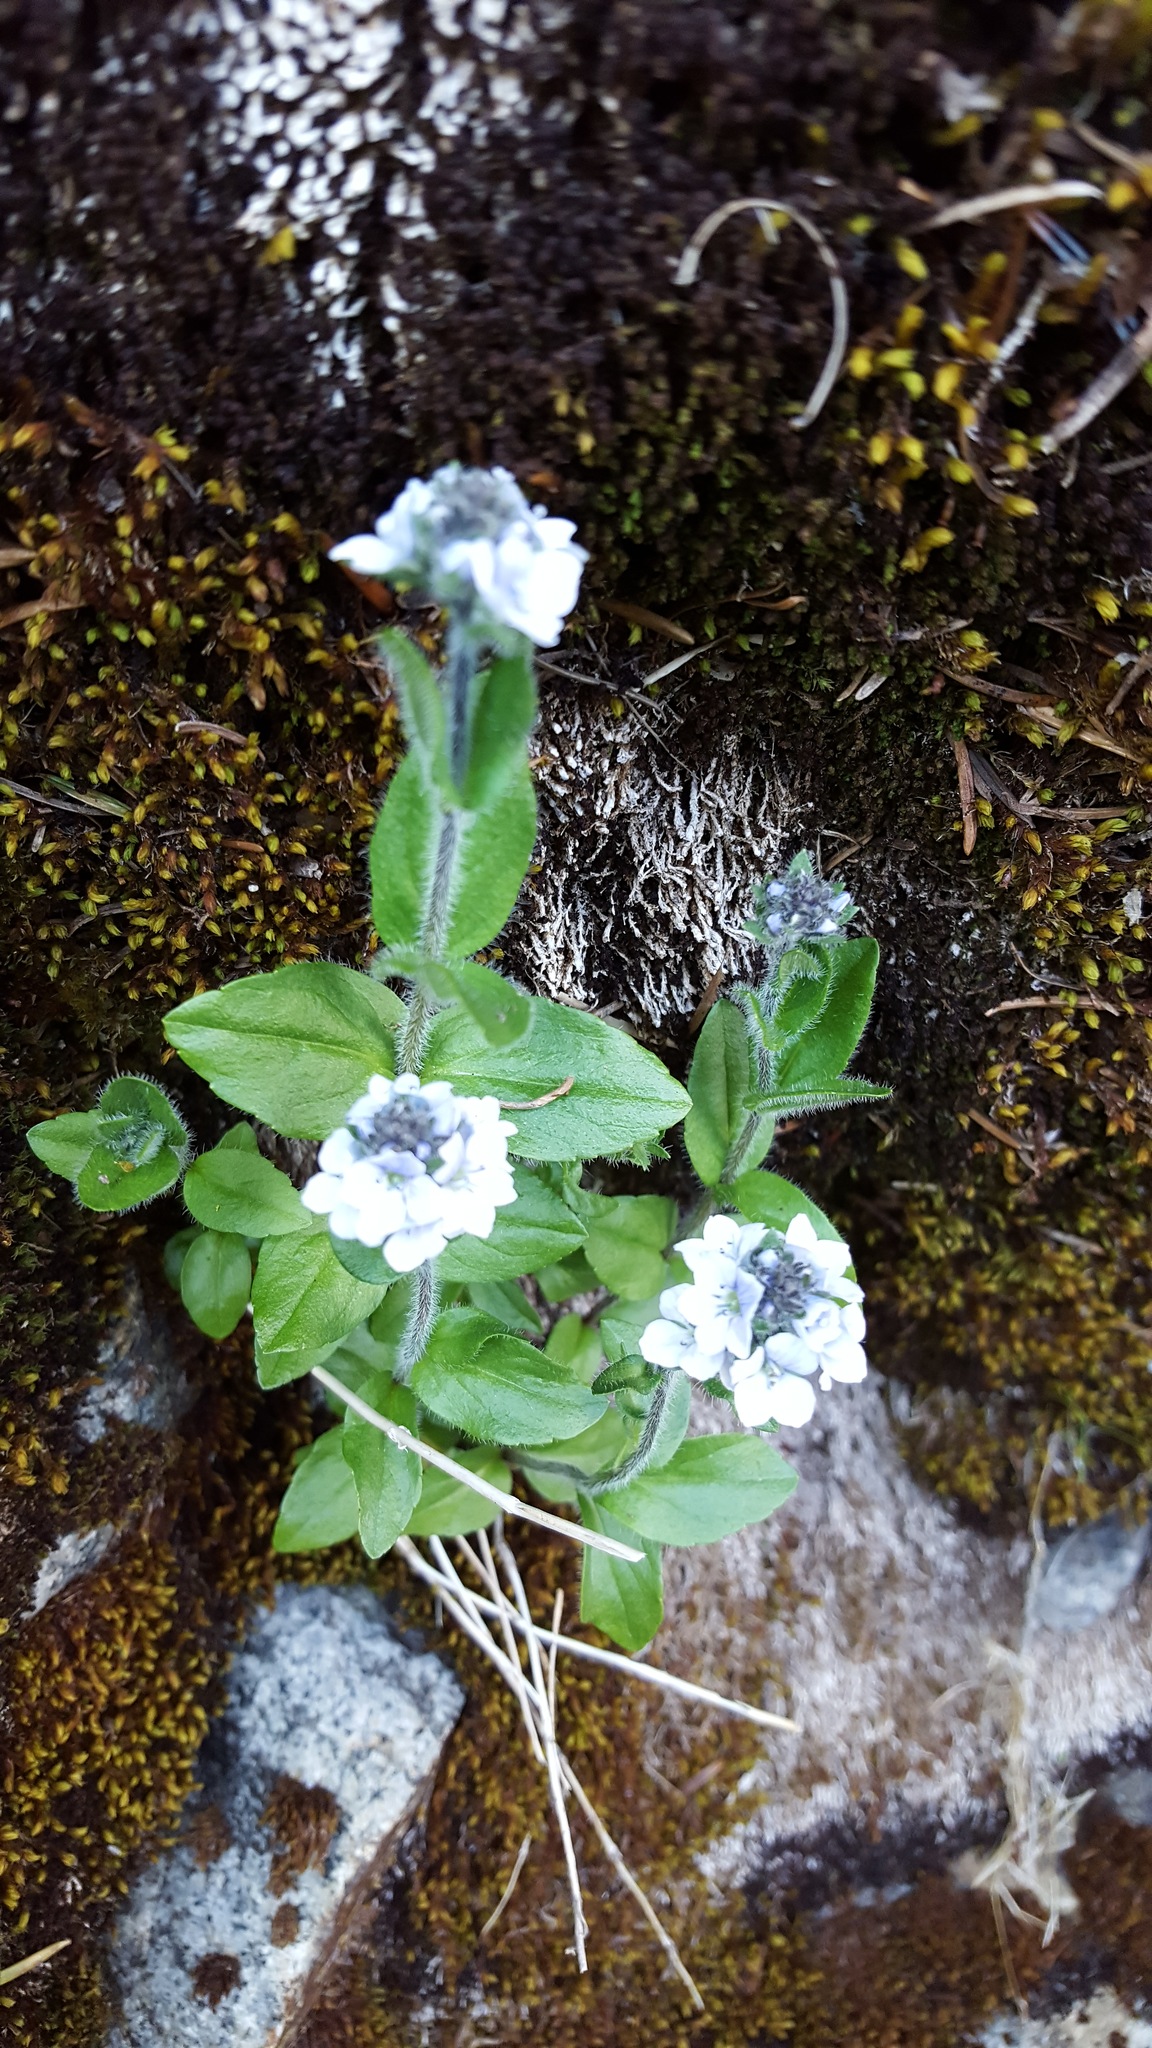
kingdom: Plantae
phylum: Tracheophyta
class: Magnoliopsida
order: Lamiales
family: Plantaginaceae
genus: Veronica
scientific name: Veronica wormskjoldii
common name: American alpine speedwell
